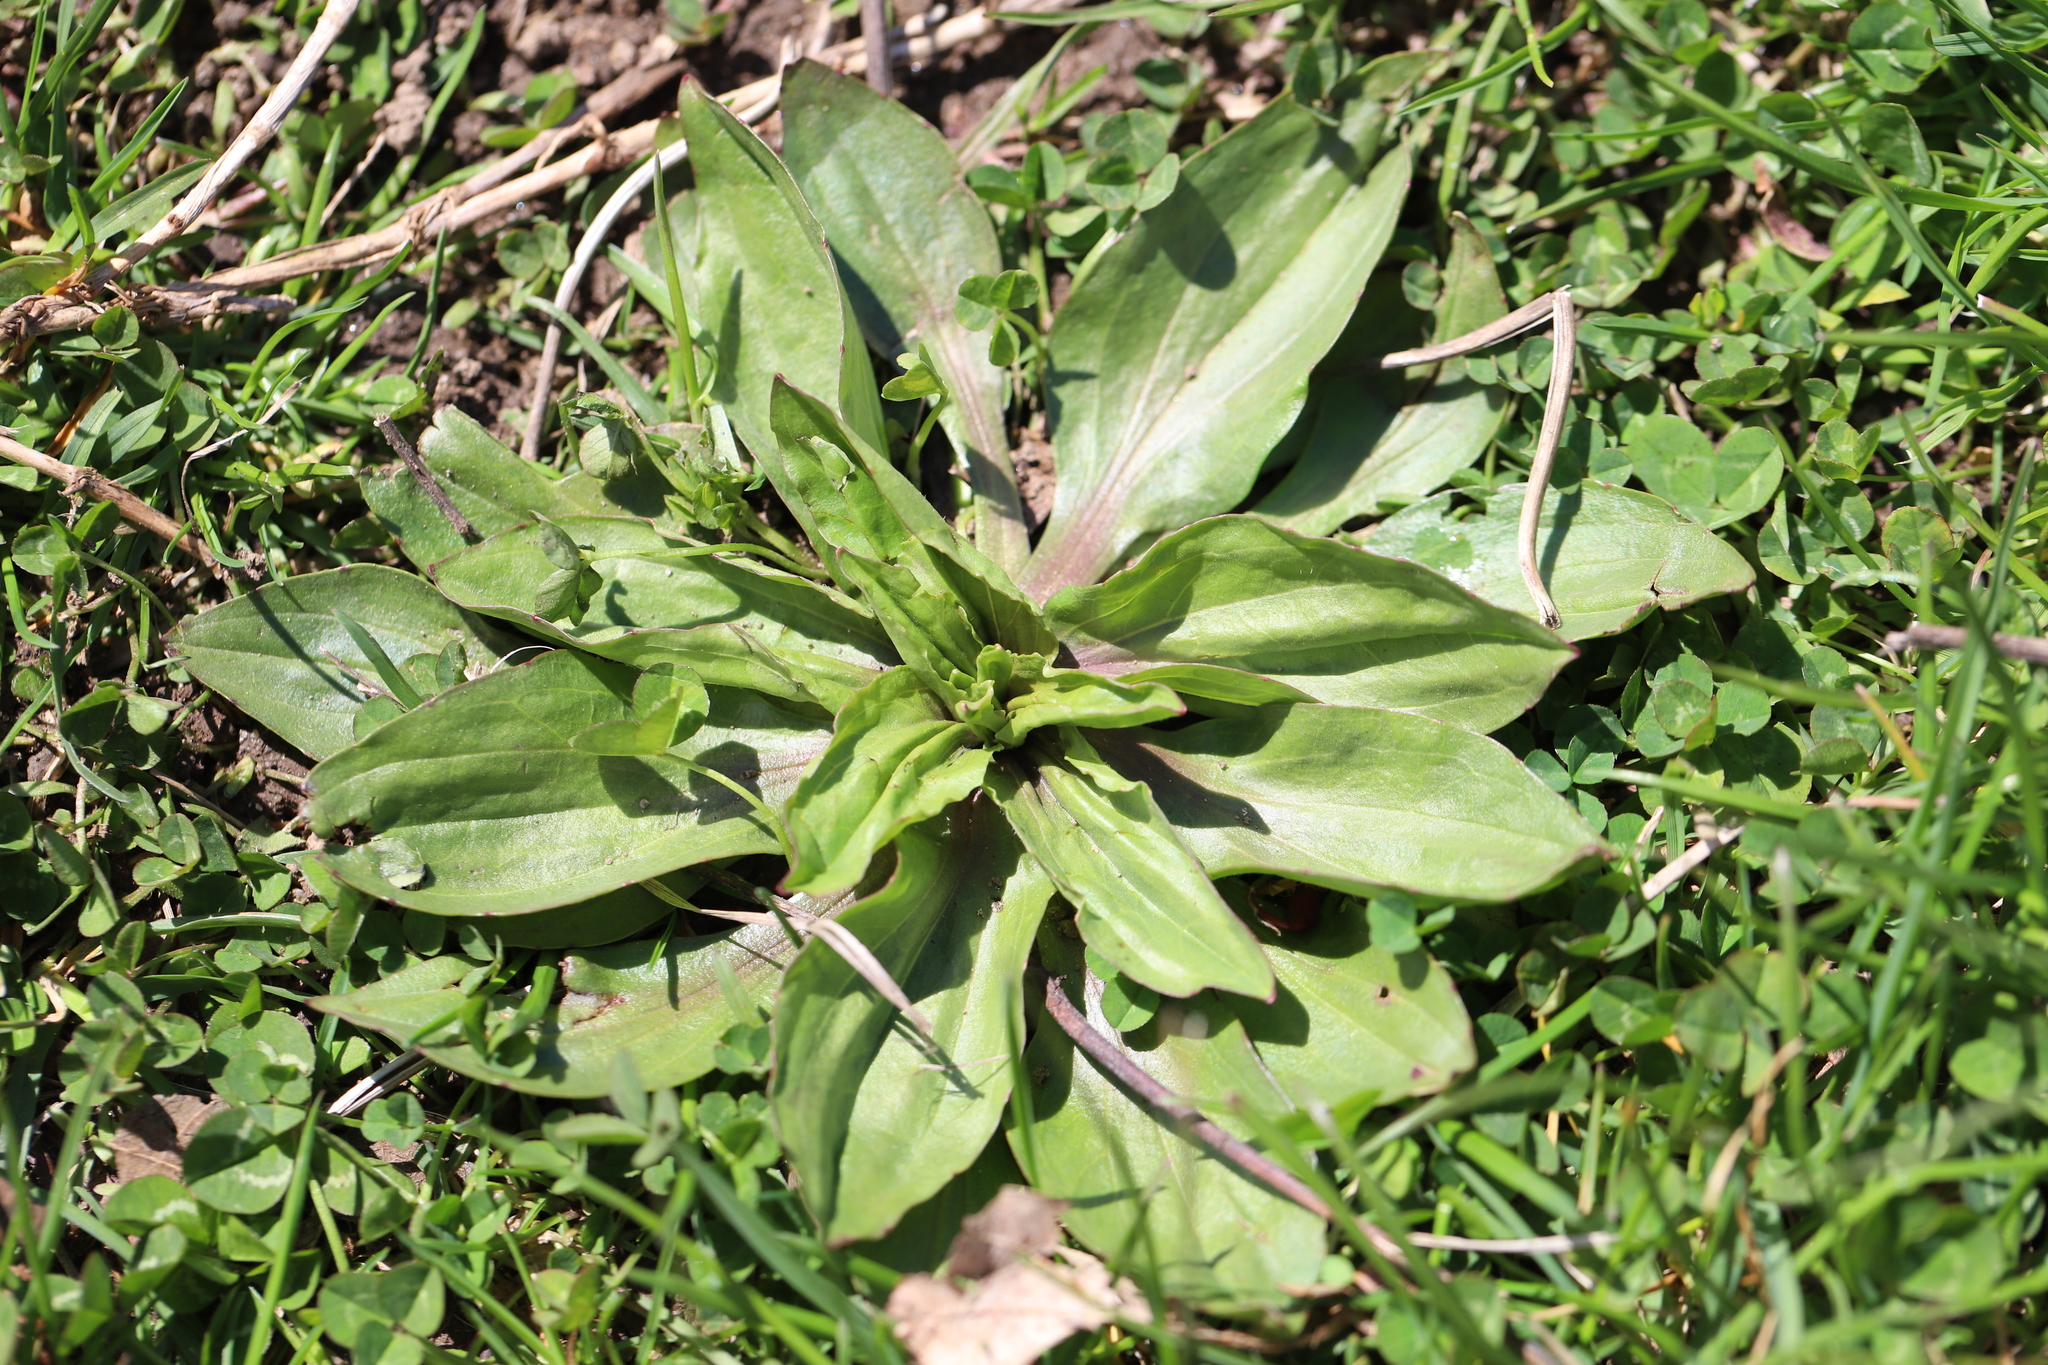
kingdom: Plantae
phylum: Tracheophyta
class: Magnoliopsida
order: Lamiales
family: Plantaginaceae
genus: Plantago
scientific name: Plantago rugelii
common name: American plantain
